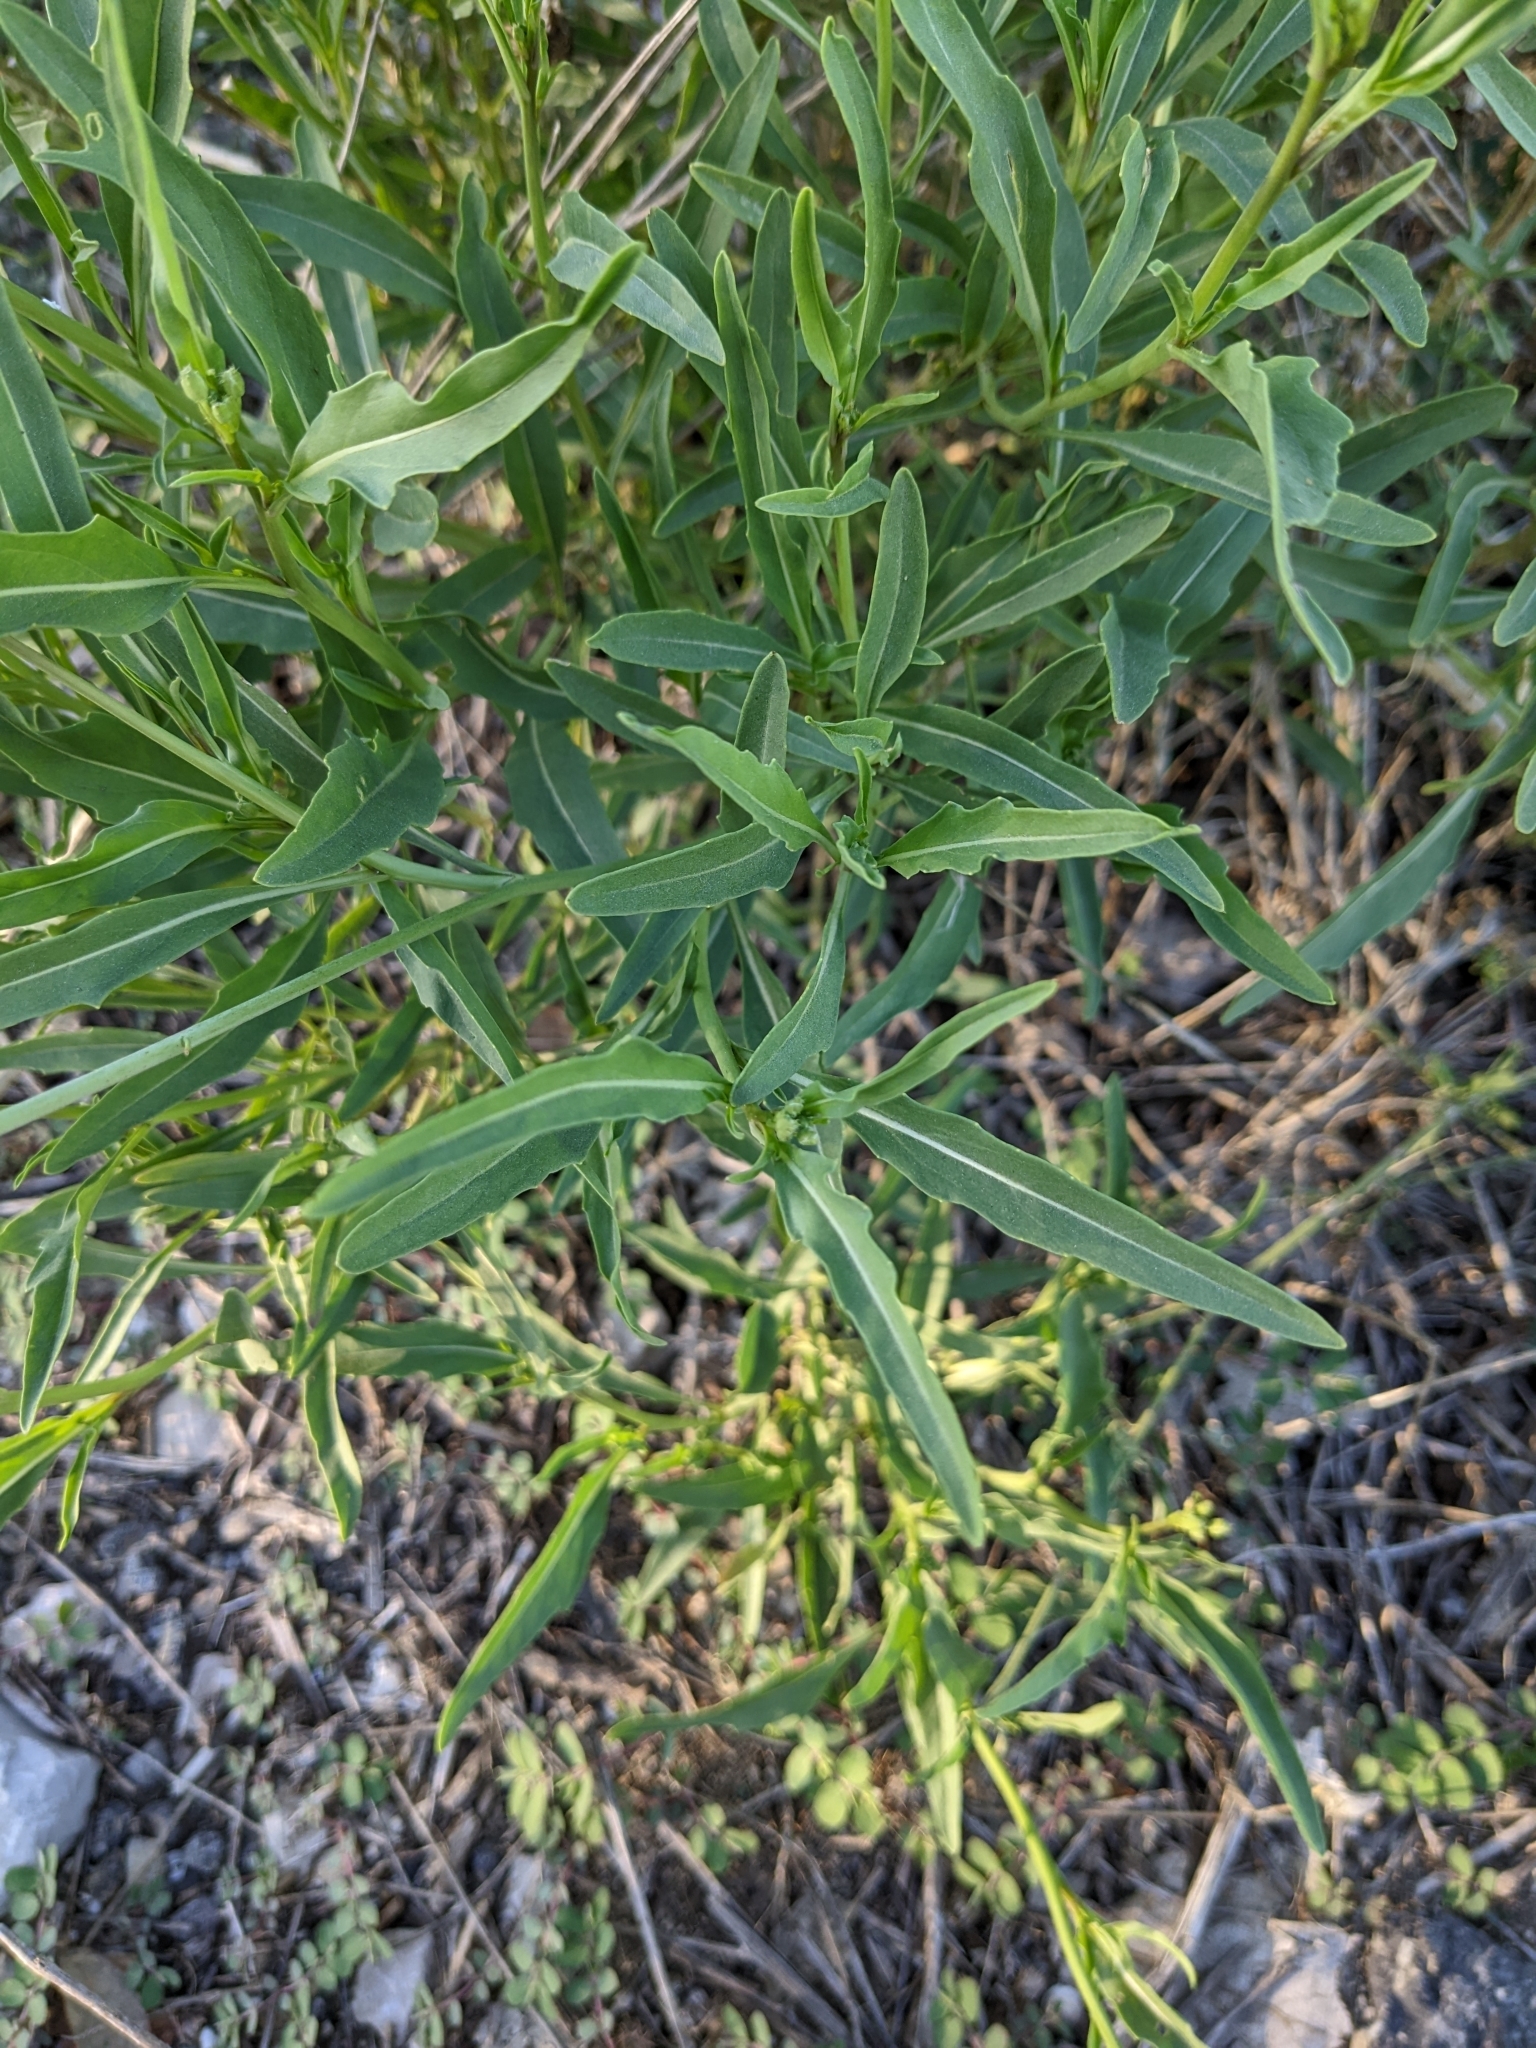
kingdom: Plantae
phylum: Tracheophyta
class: Magnoliopsida
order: Brassicales
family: Brassicaceae
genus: Diplotaxis
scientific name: Diplotaxis tenuifolia
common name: Perennial wall-rocket
